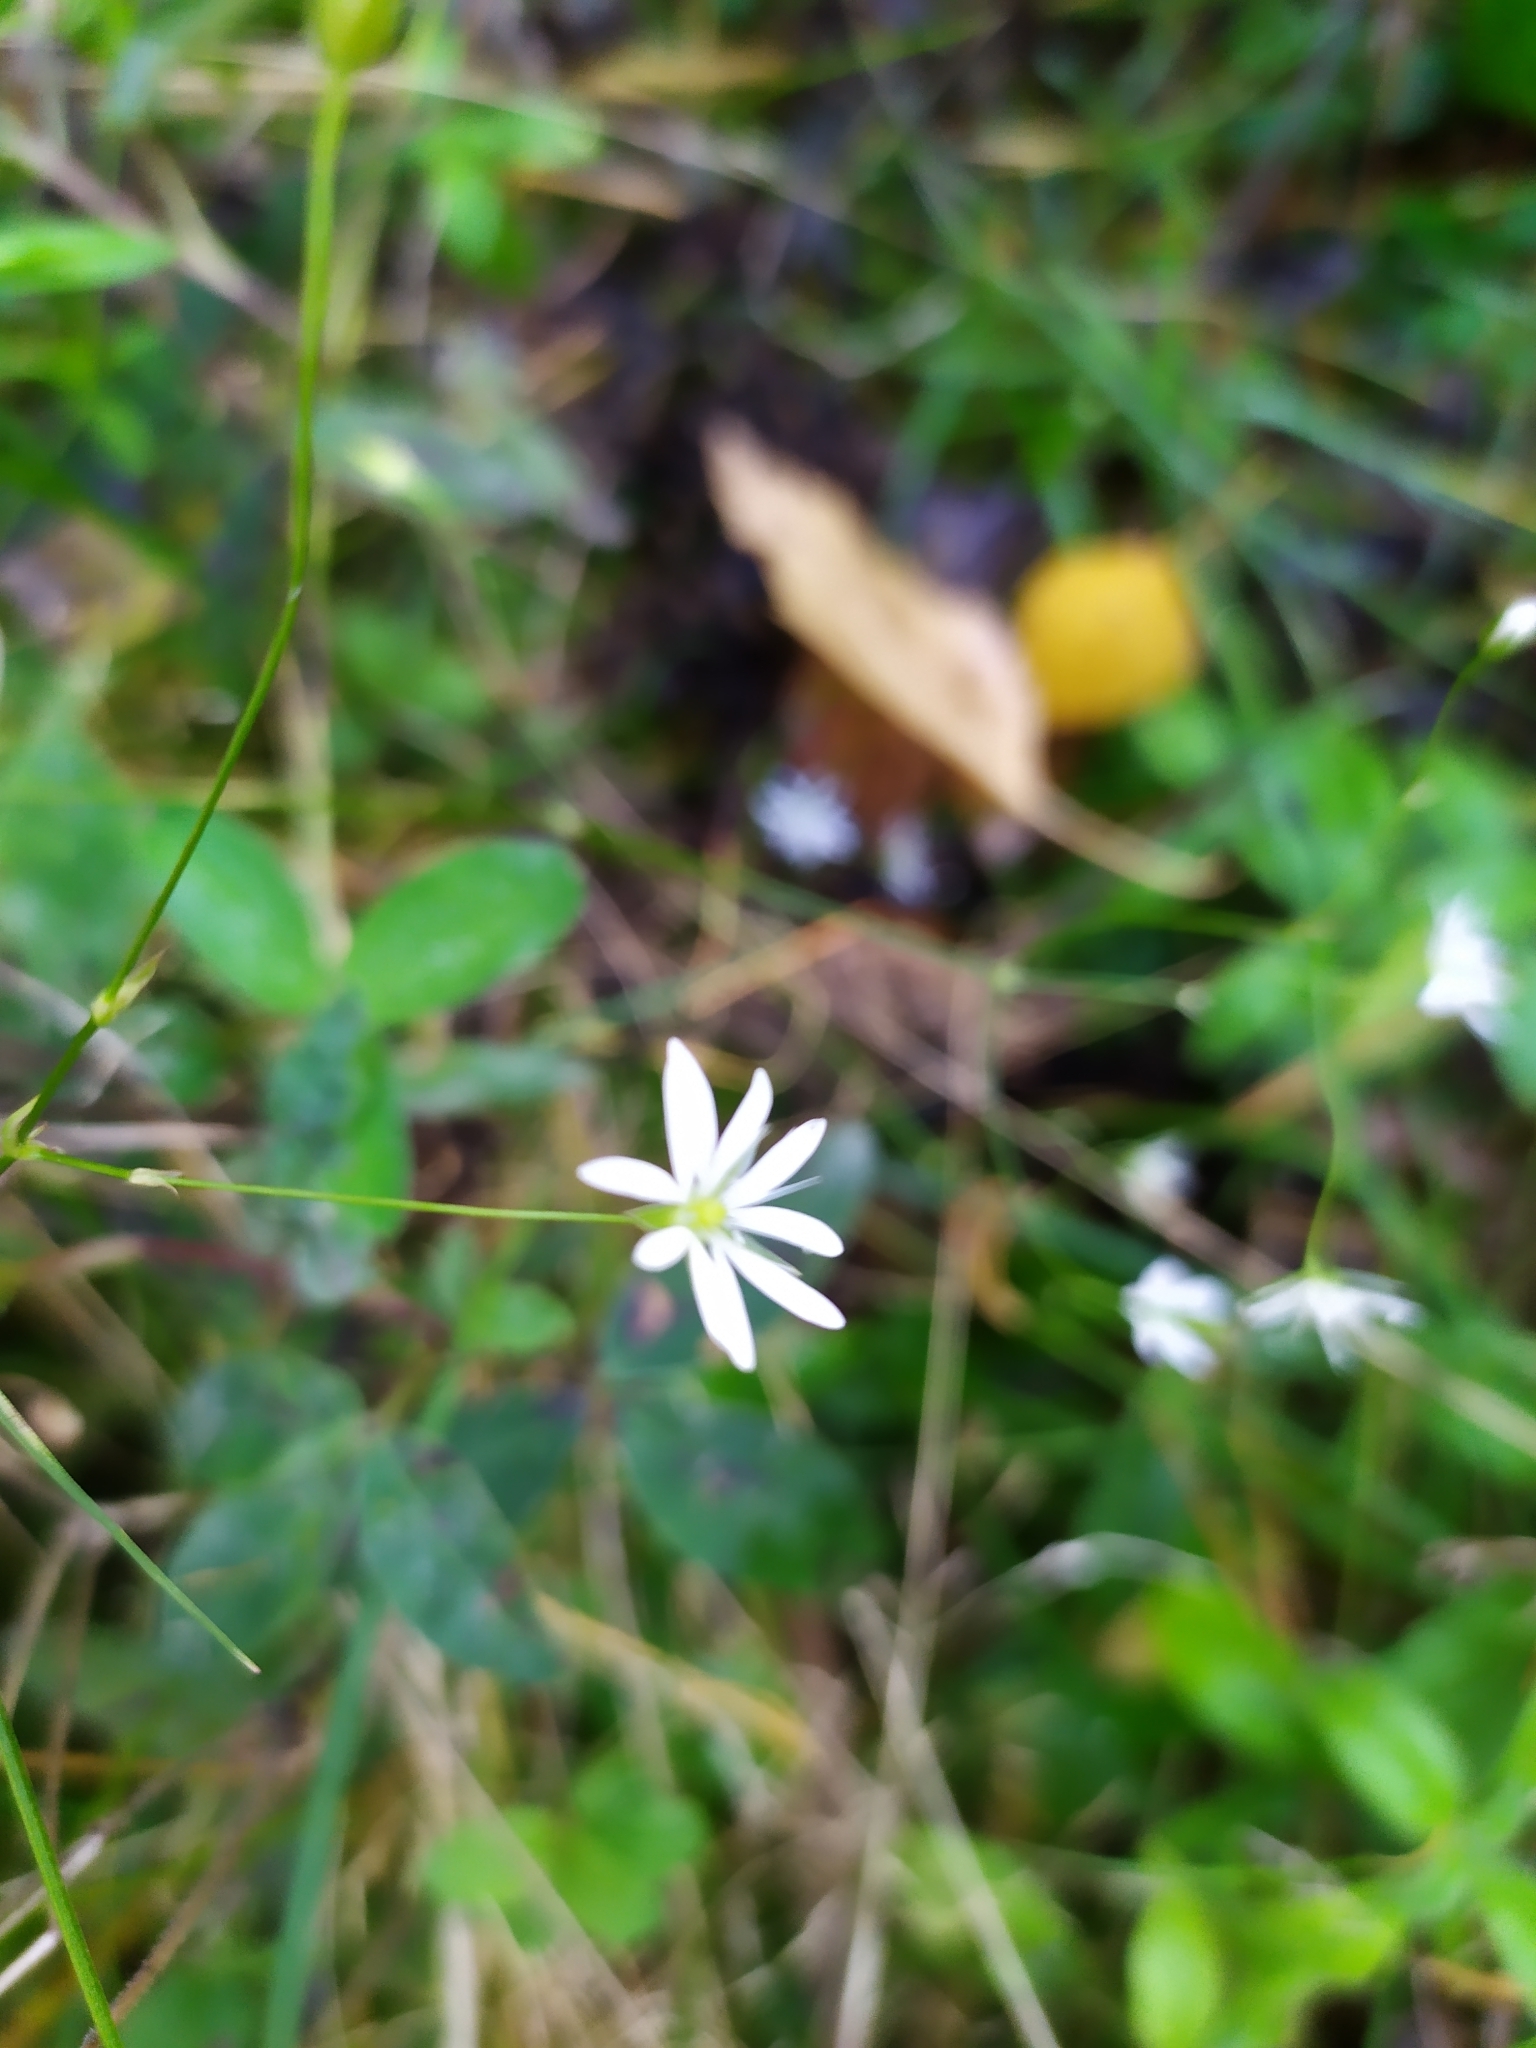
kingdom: Plantae
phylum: Tracheophyta
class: Magnoliopsida
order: Caryophyllales
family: Caryophyllaceae
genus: Stellaria
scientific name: Stellaria graminea
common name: Grass-like starwort
